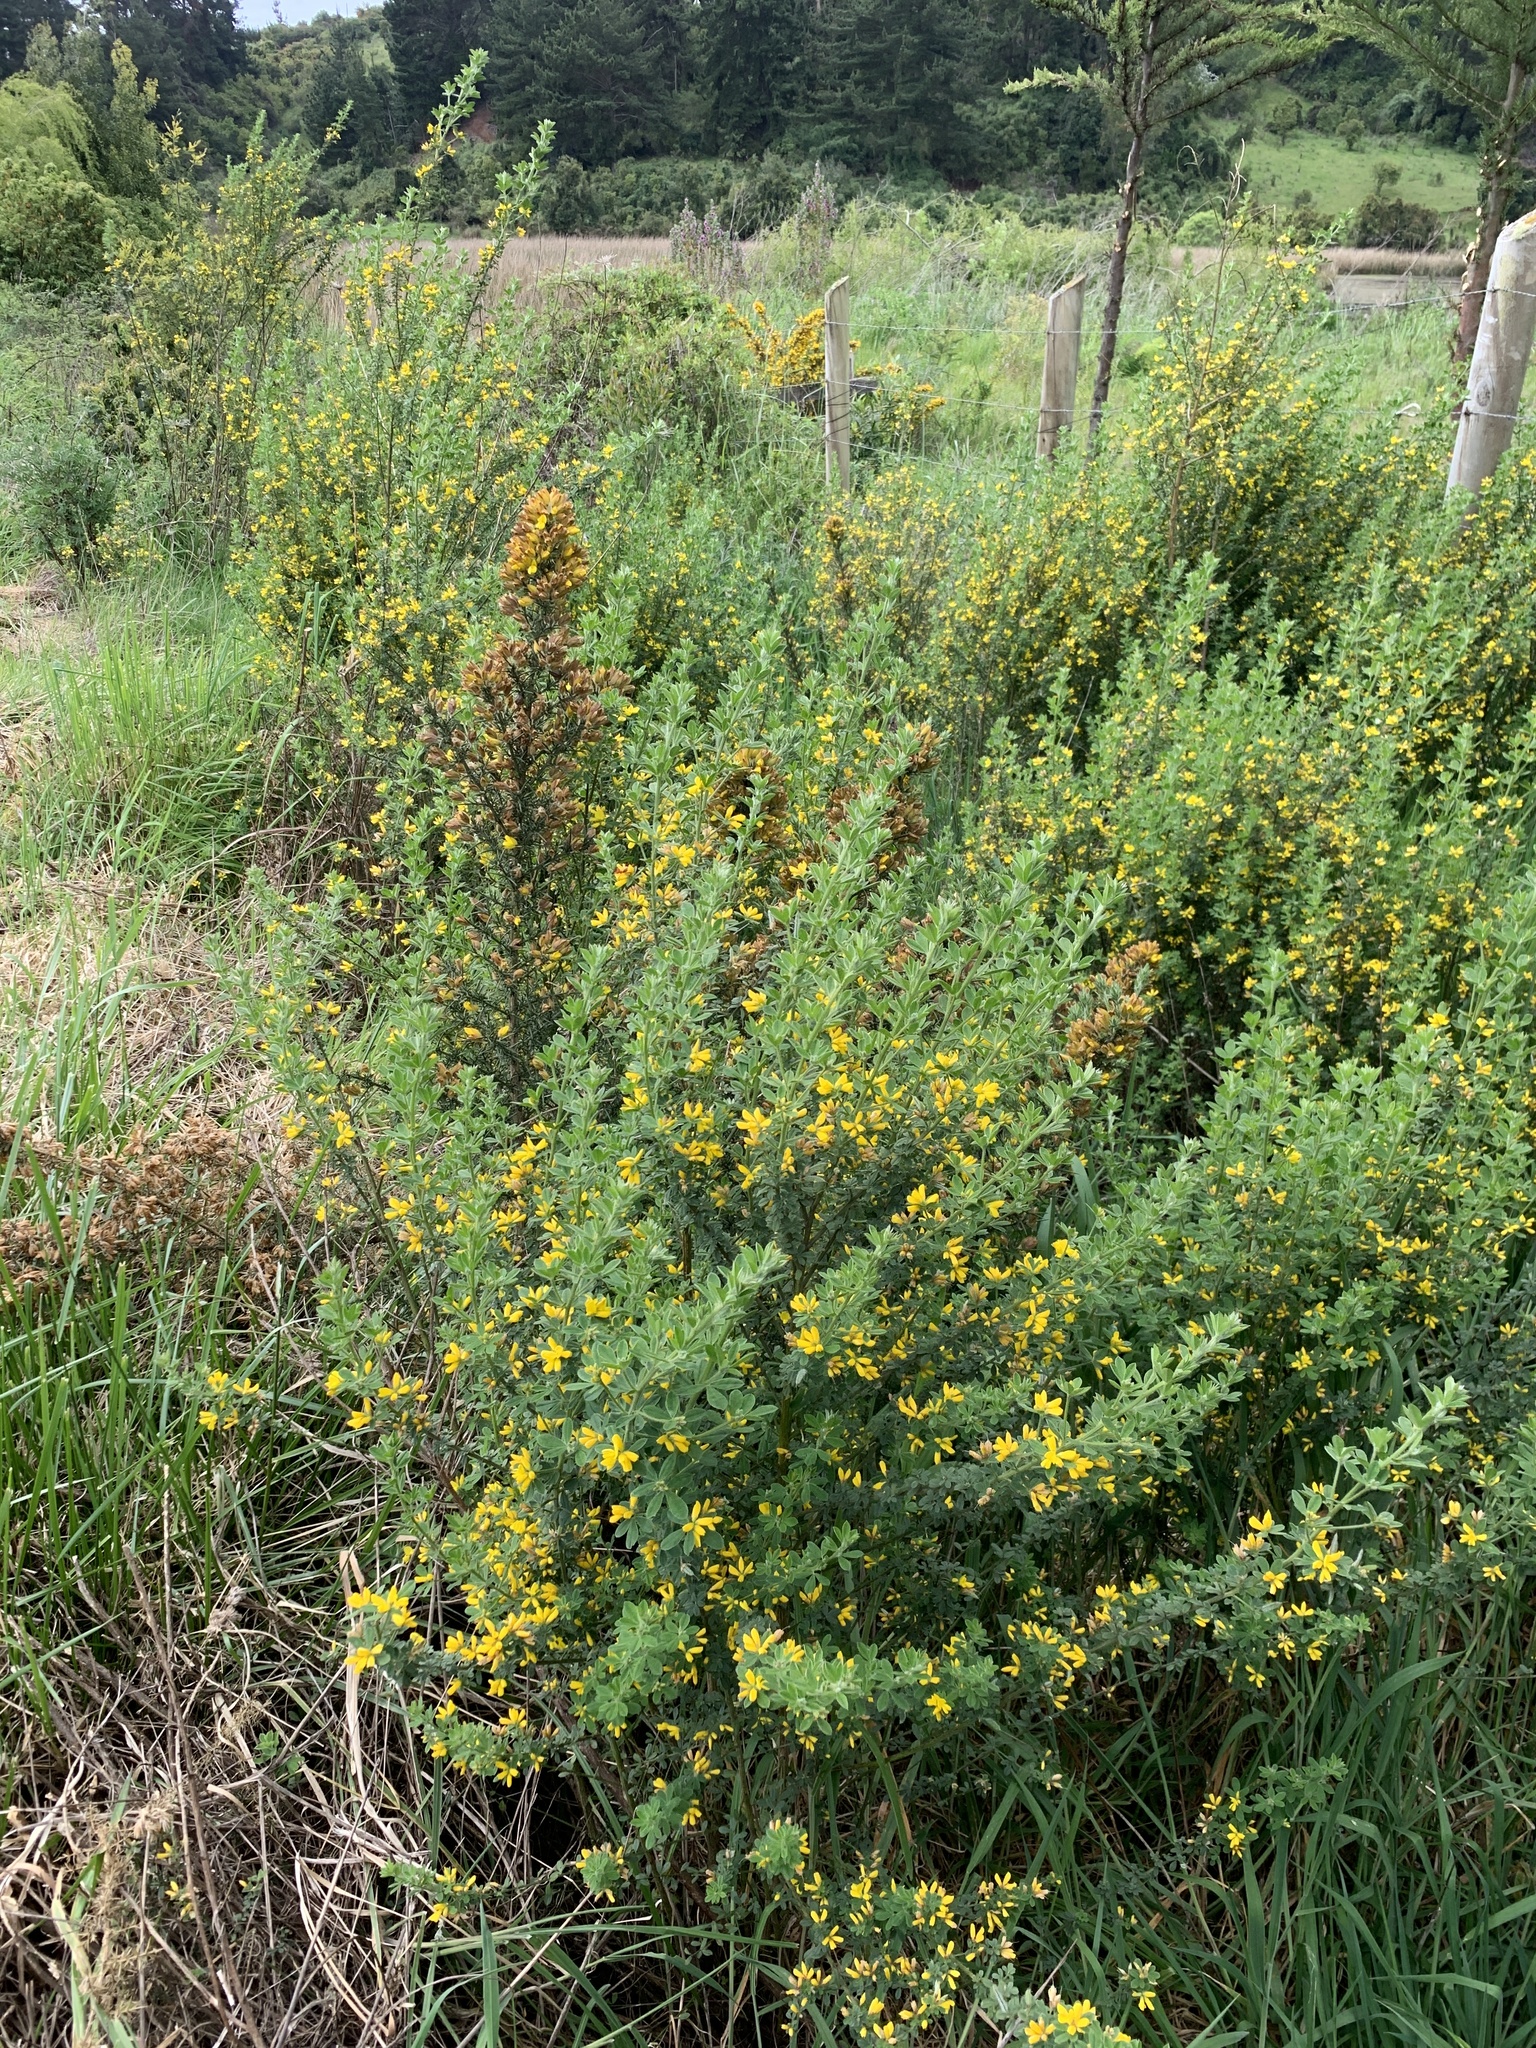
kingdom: Plantae
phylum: Tracheophyta
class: Magnoliopsida
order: Fabales
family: Fabaceae
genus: Genista
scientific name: Genista monspessulana
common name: Montpellier broom
